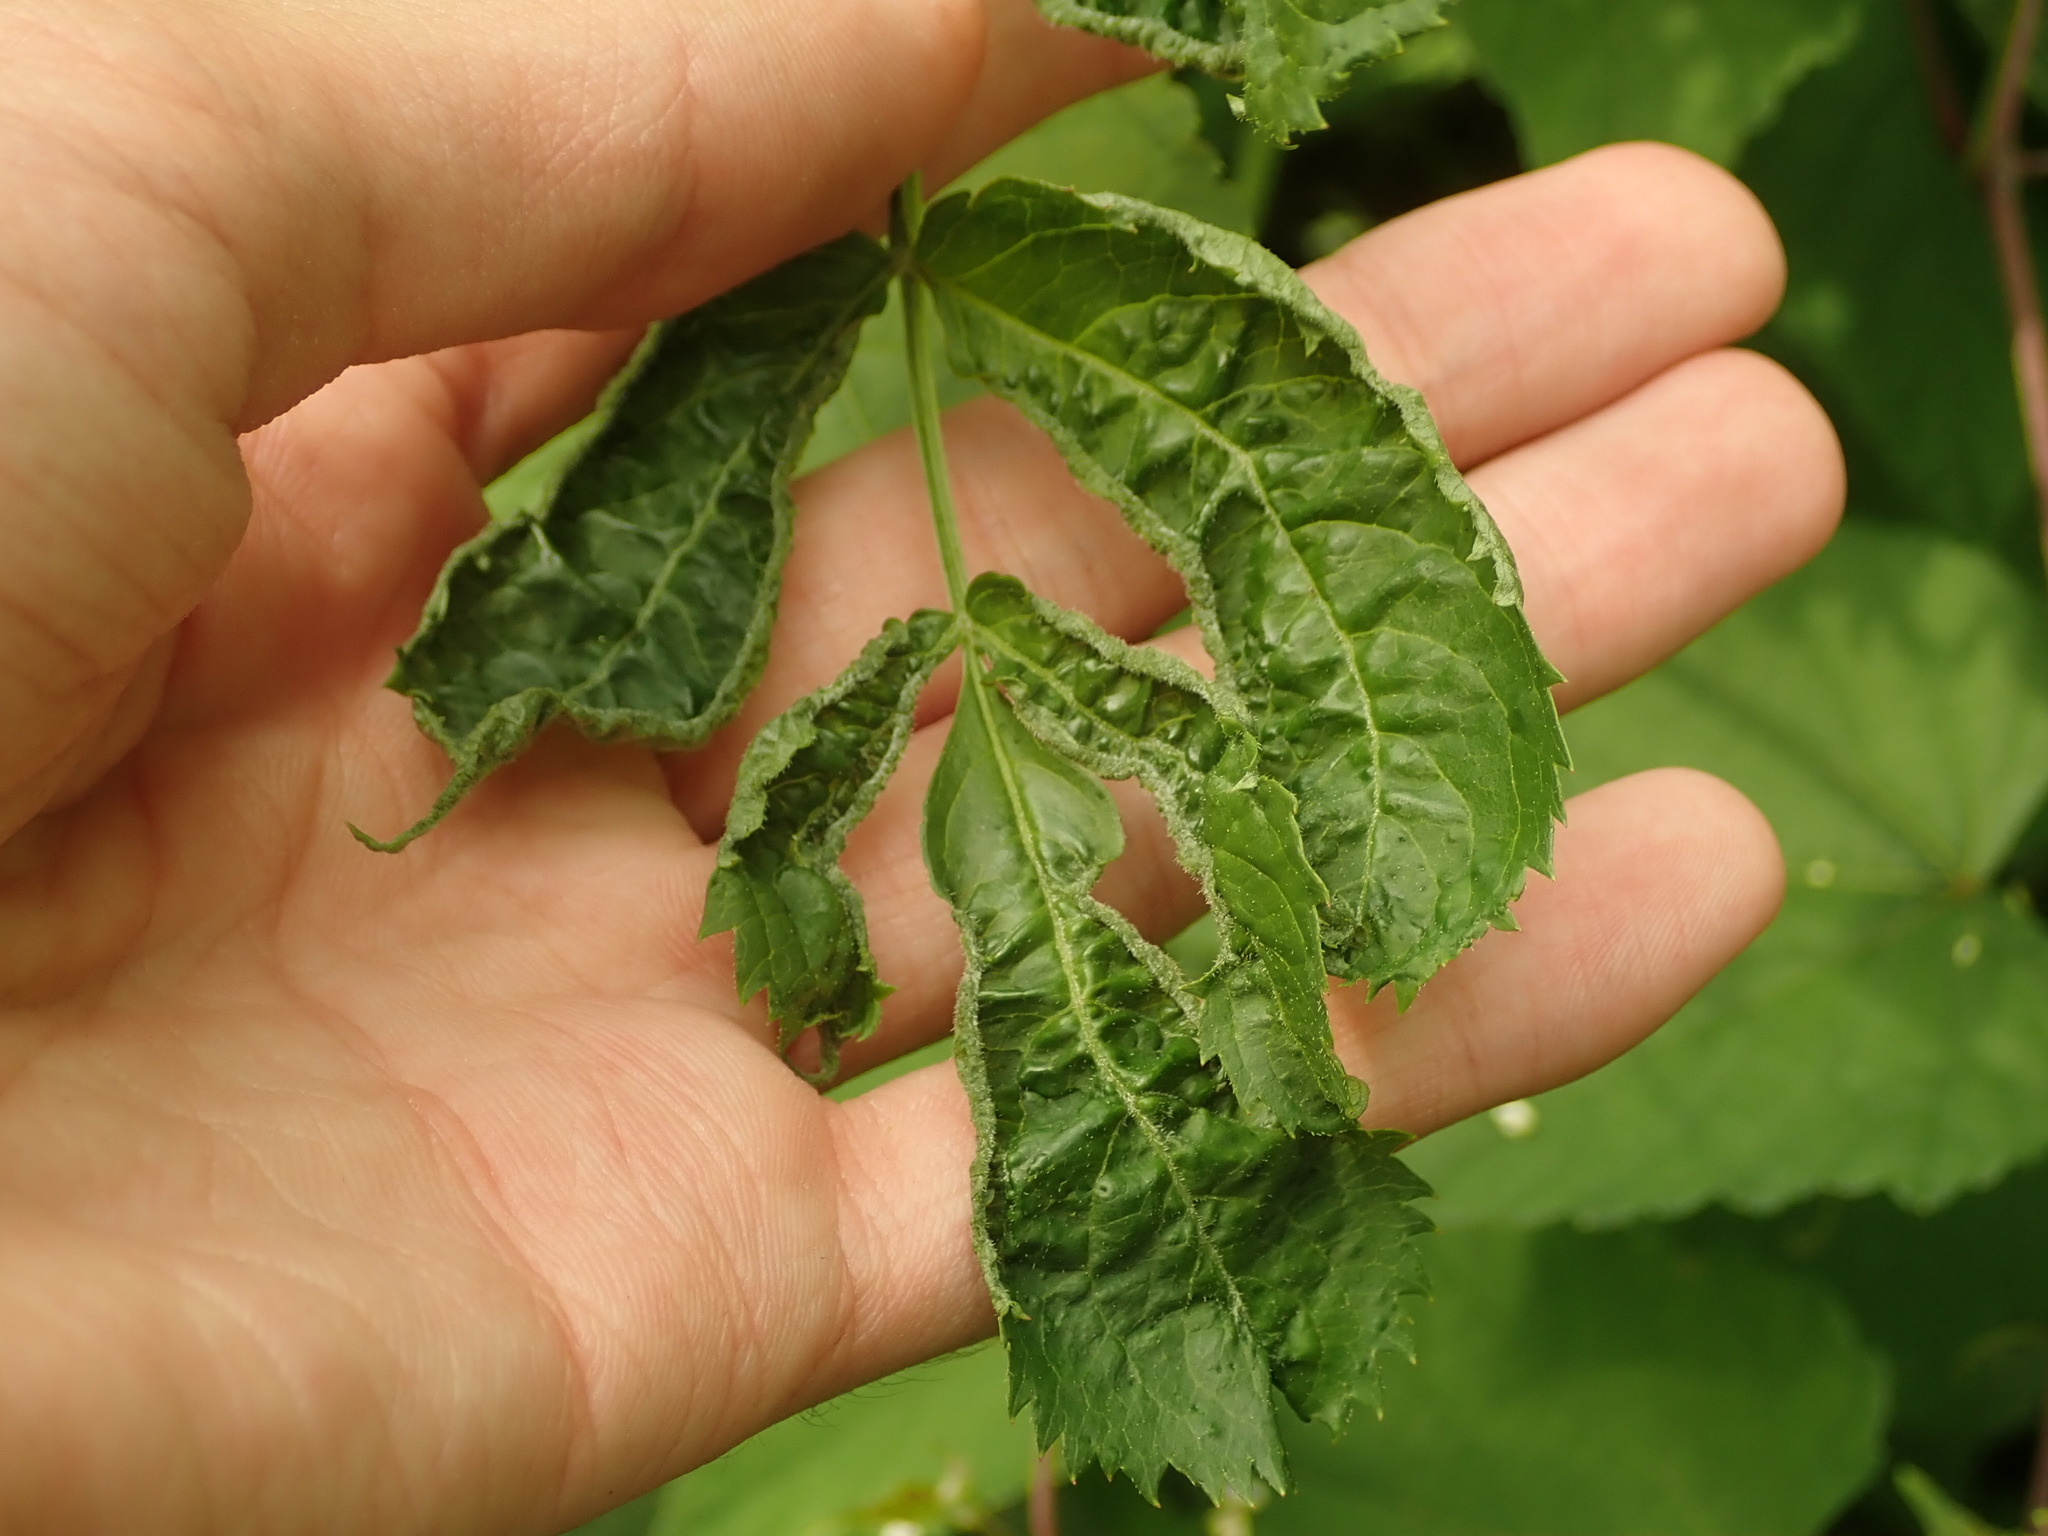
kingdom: Animalia
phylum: Arthropoda
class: Arachnida
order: Trombidiformes
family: Eriophyidae
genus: Phyllocoptes
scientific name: Phyllocoptes
